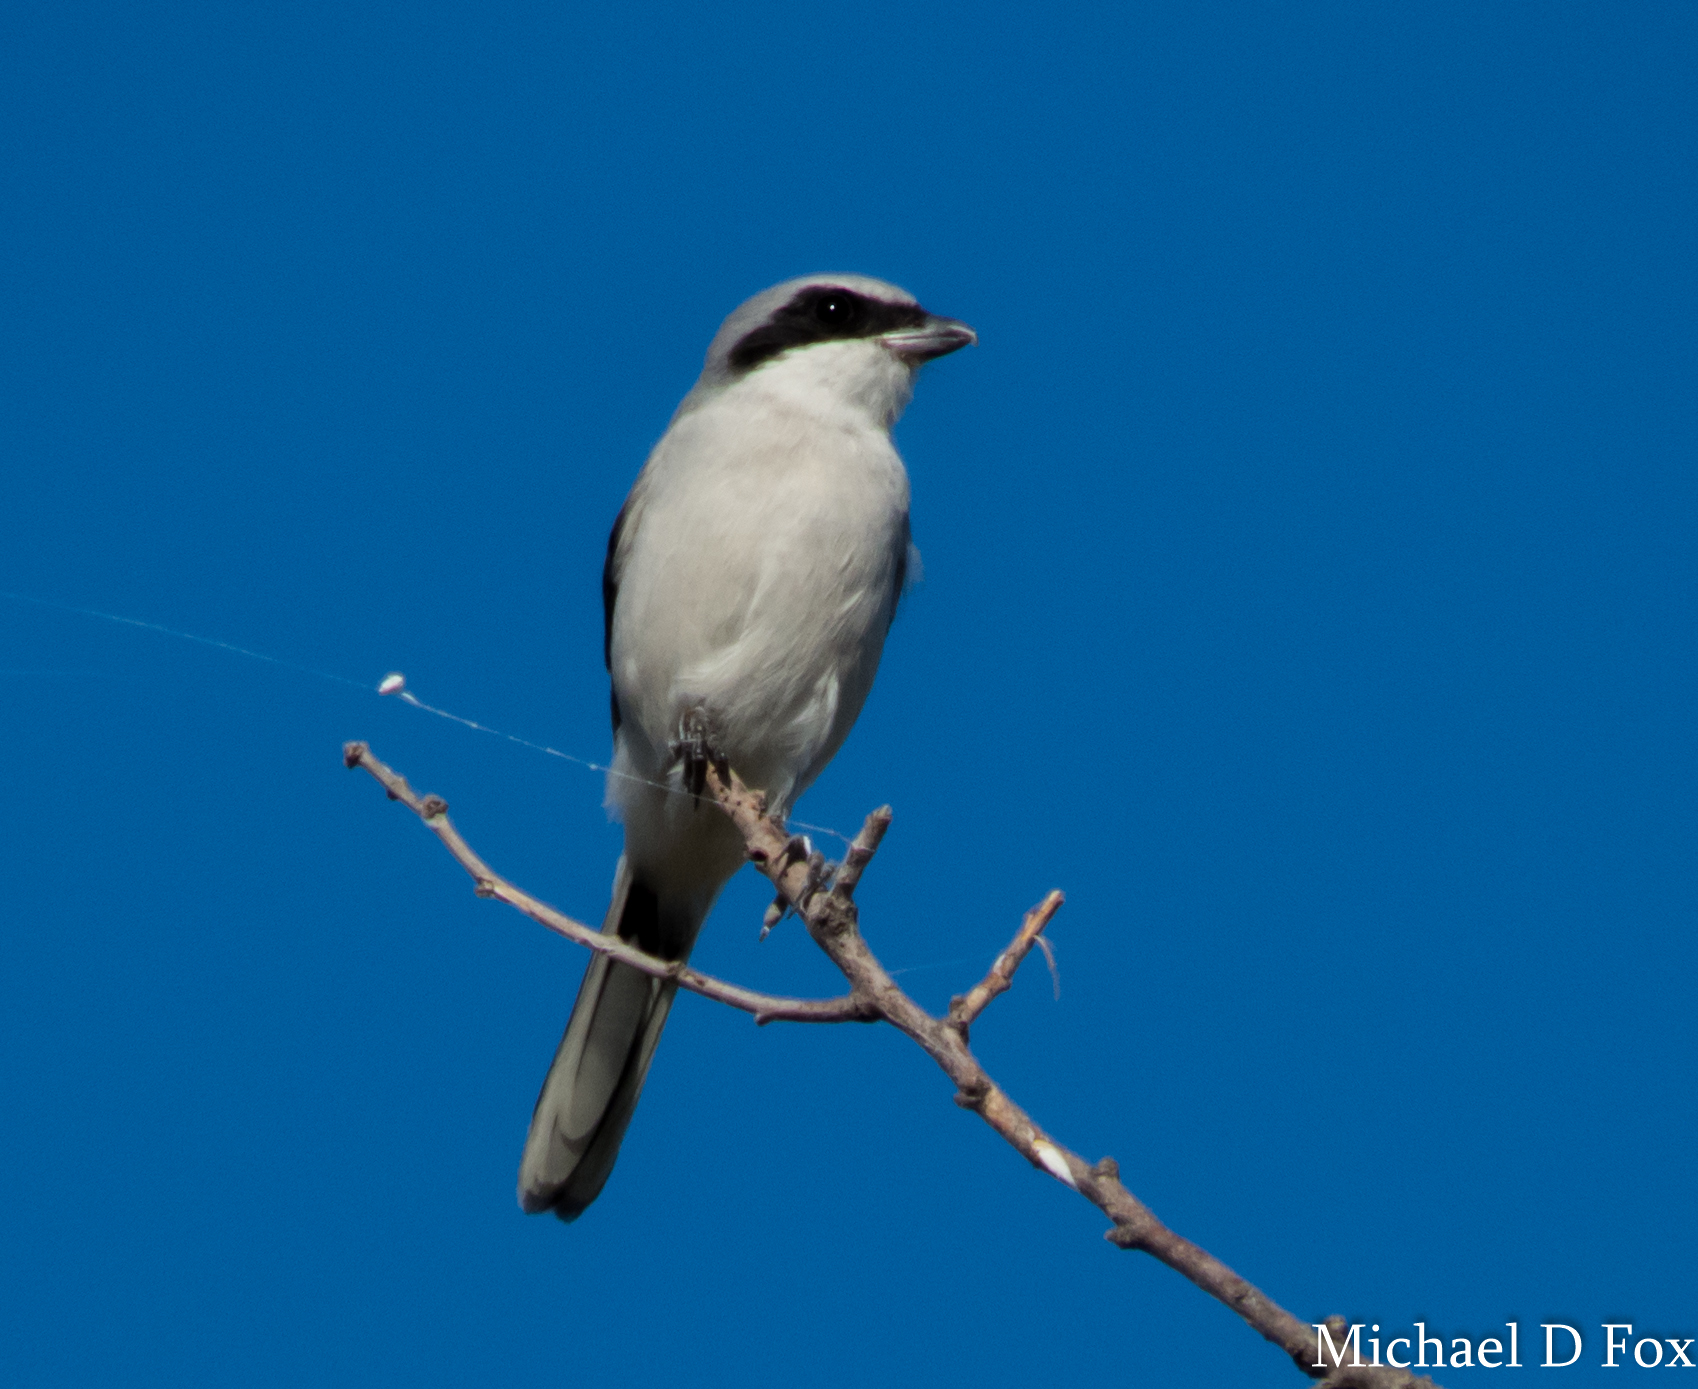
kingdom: Animalia
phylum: Chordata
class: Aves
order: Passeriformes
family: Laniidae
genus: Lanius
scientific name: Lanius ludovicianus
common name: Loggerhead shrike
